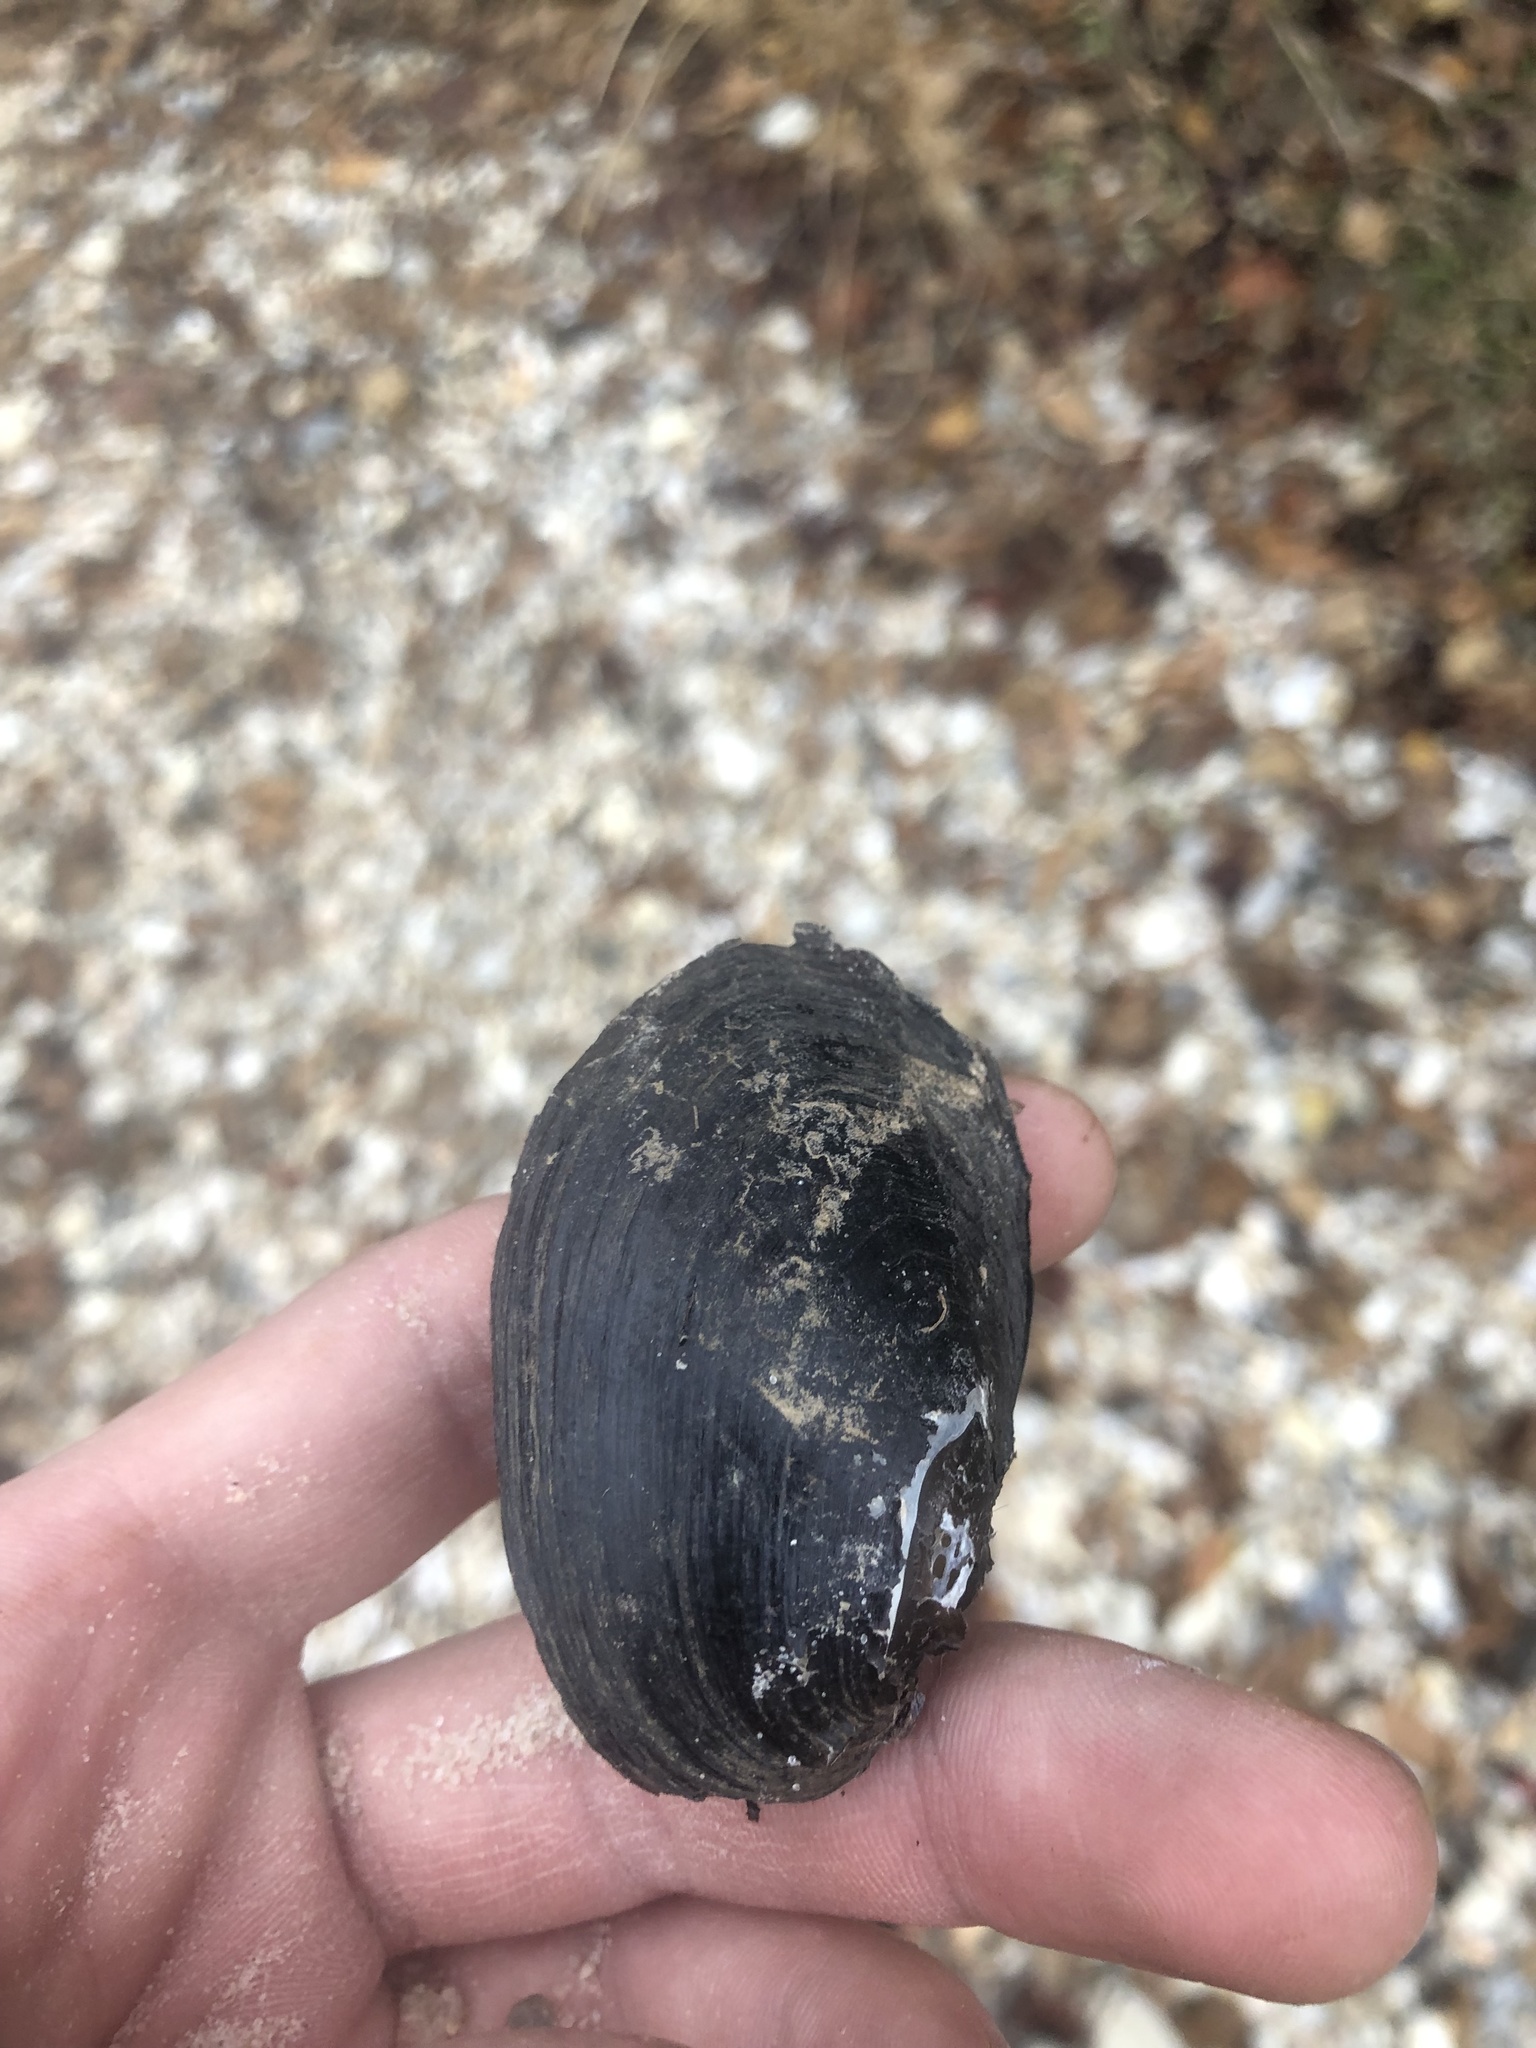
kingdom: Animalia
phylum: Mollusca
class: Bivalvia
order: Unionida
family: Unionidae
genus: Toxolasma
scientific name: Toxolasma texasiense
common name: Texas lilliput
